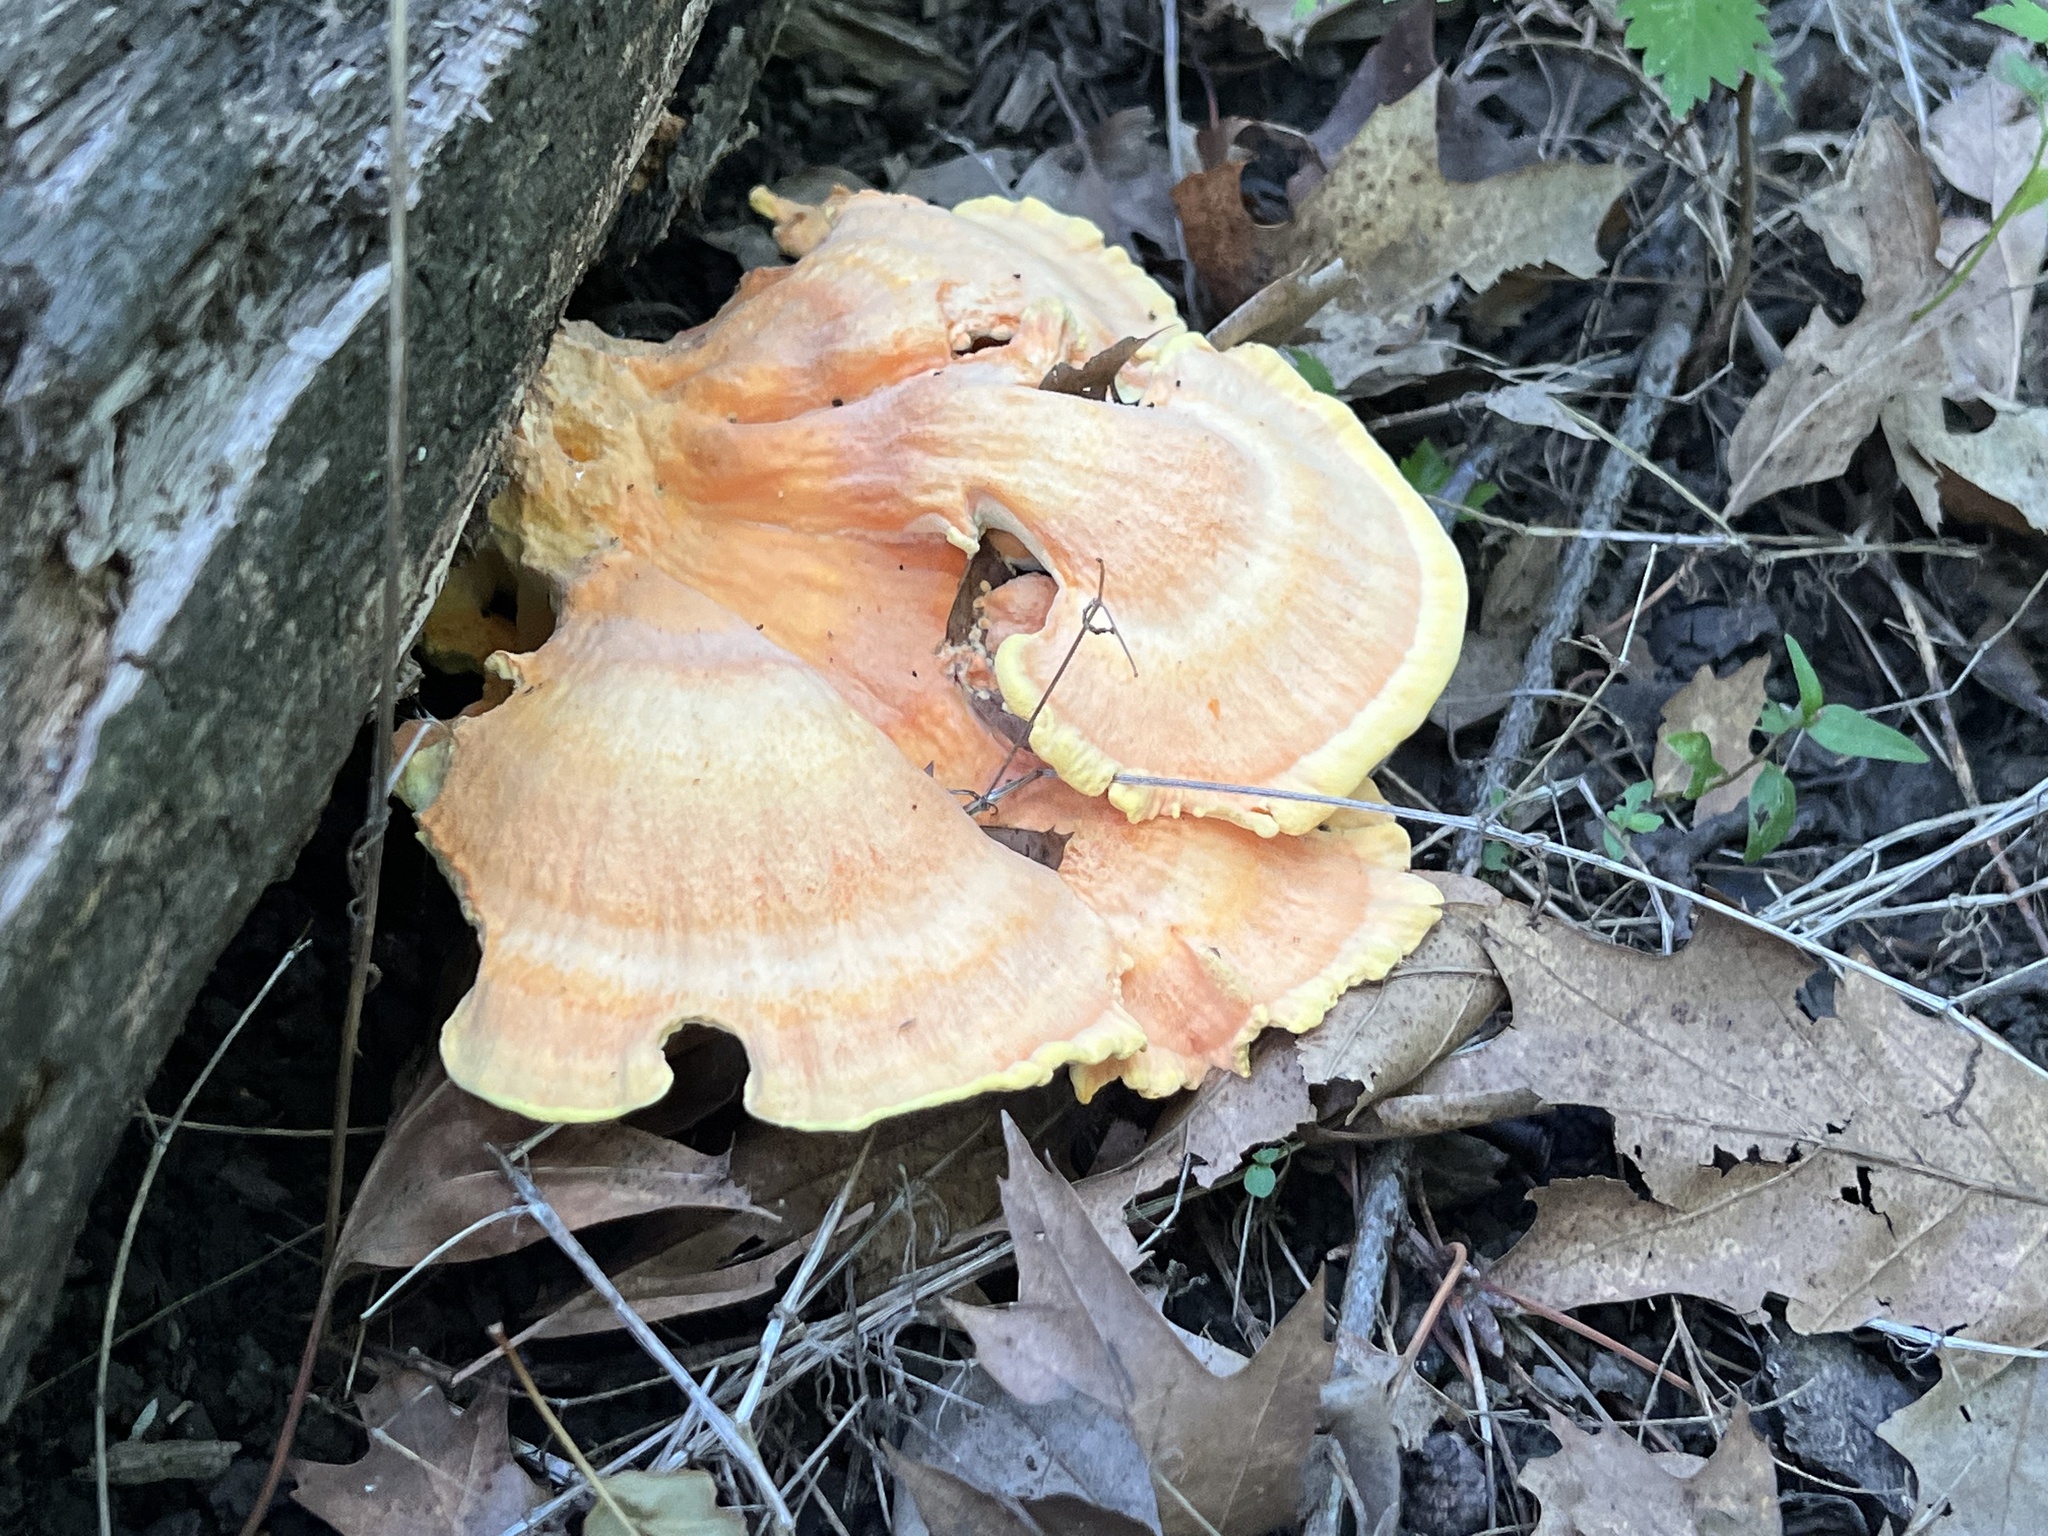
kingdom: Fungi
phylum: Basidiomycota
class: Agaricomycetes
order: Polyporales
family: Laetiporaceae
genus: Laetiporus
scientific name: Laetiporus sulphureus
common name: Chicken of the woods
